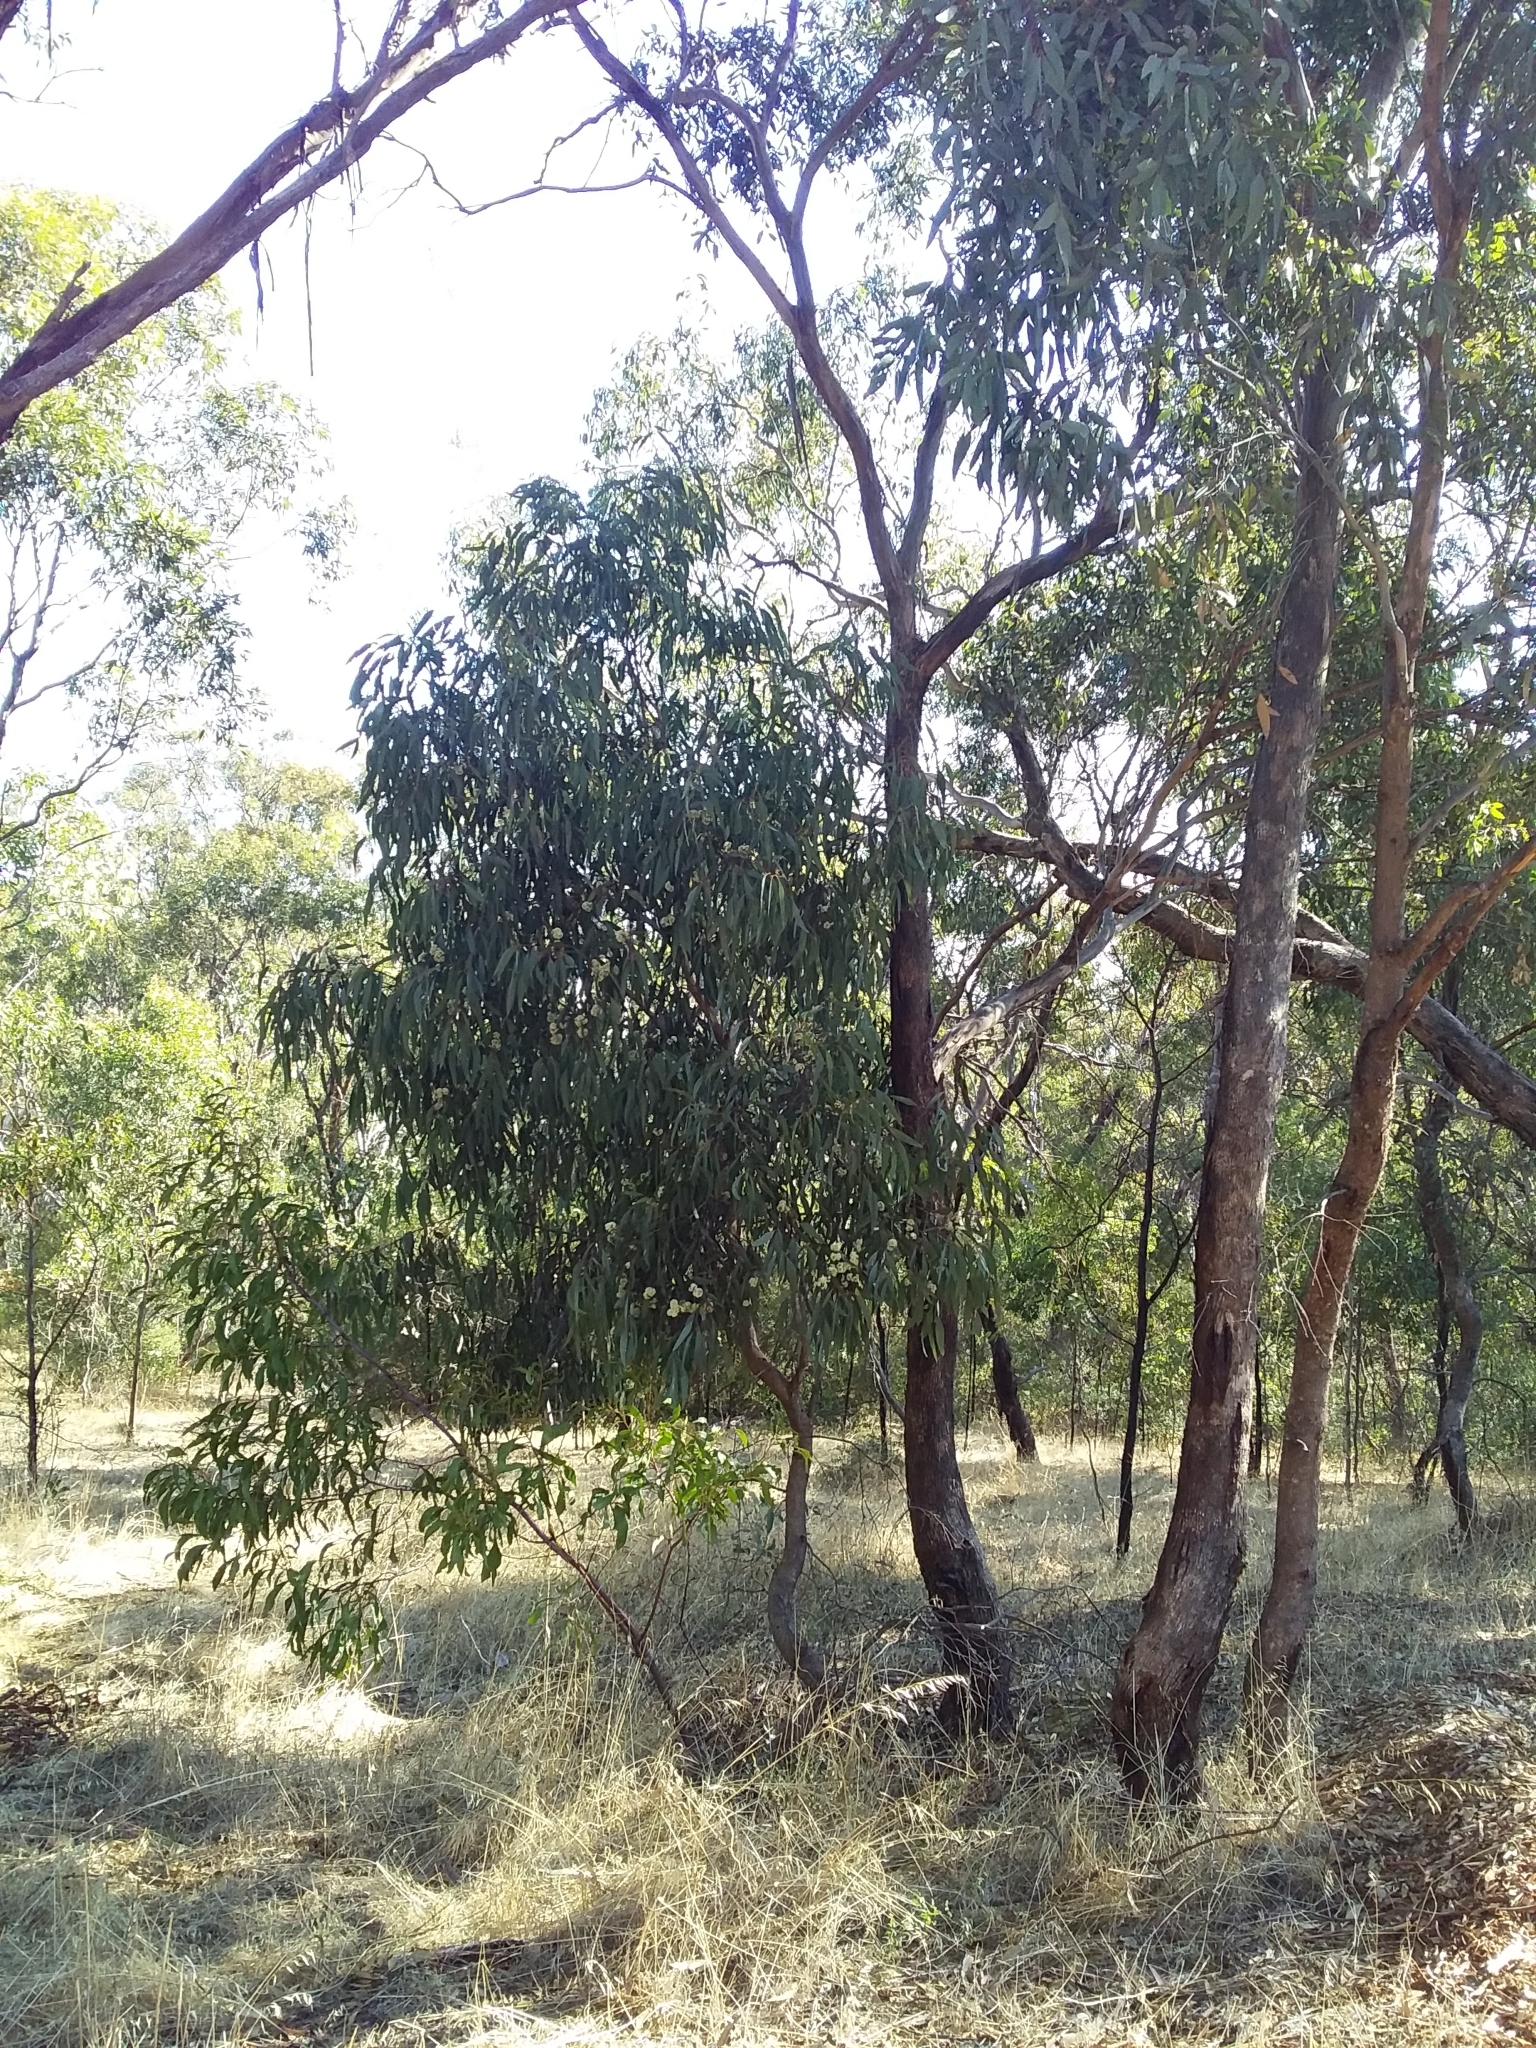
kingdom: Plantae
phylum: Tracheophyta
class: Magnoliopsida
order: Myrtales
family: Myrtaceae
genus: Eucalyptus
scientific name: Eucalyptus microcarpa
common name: Grey-box
